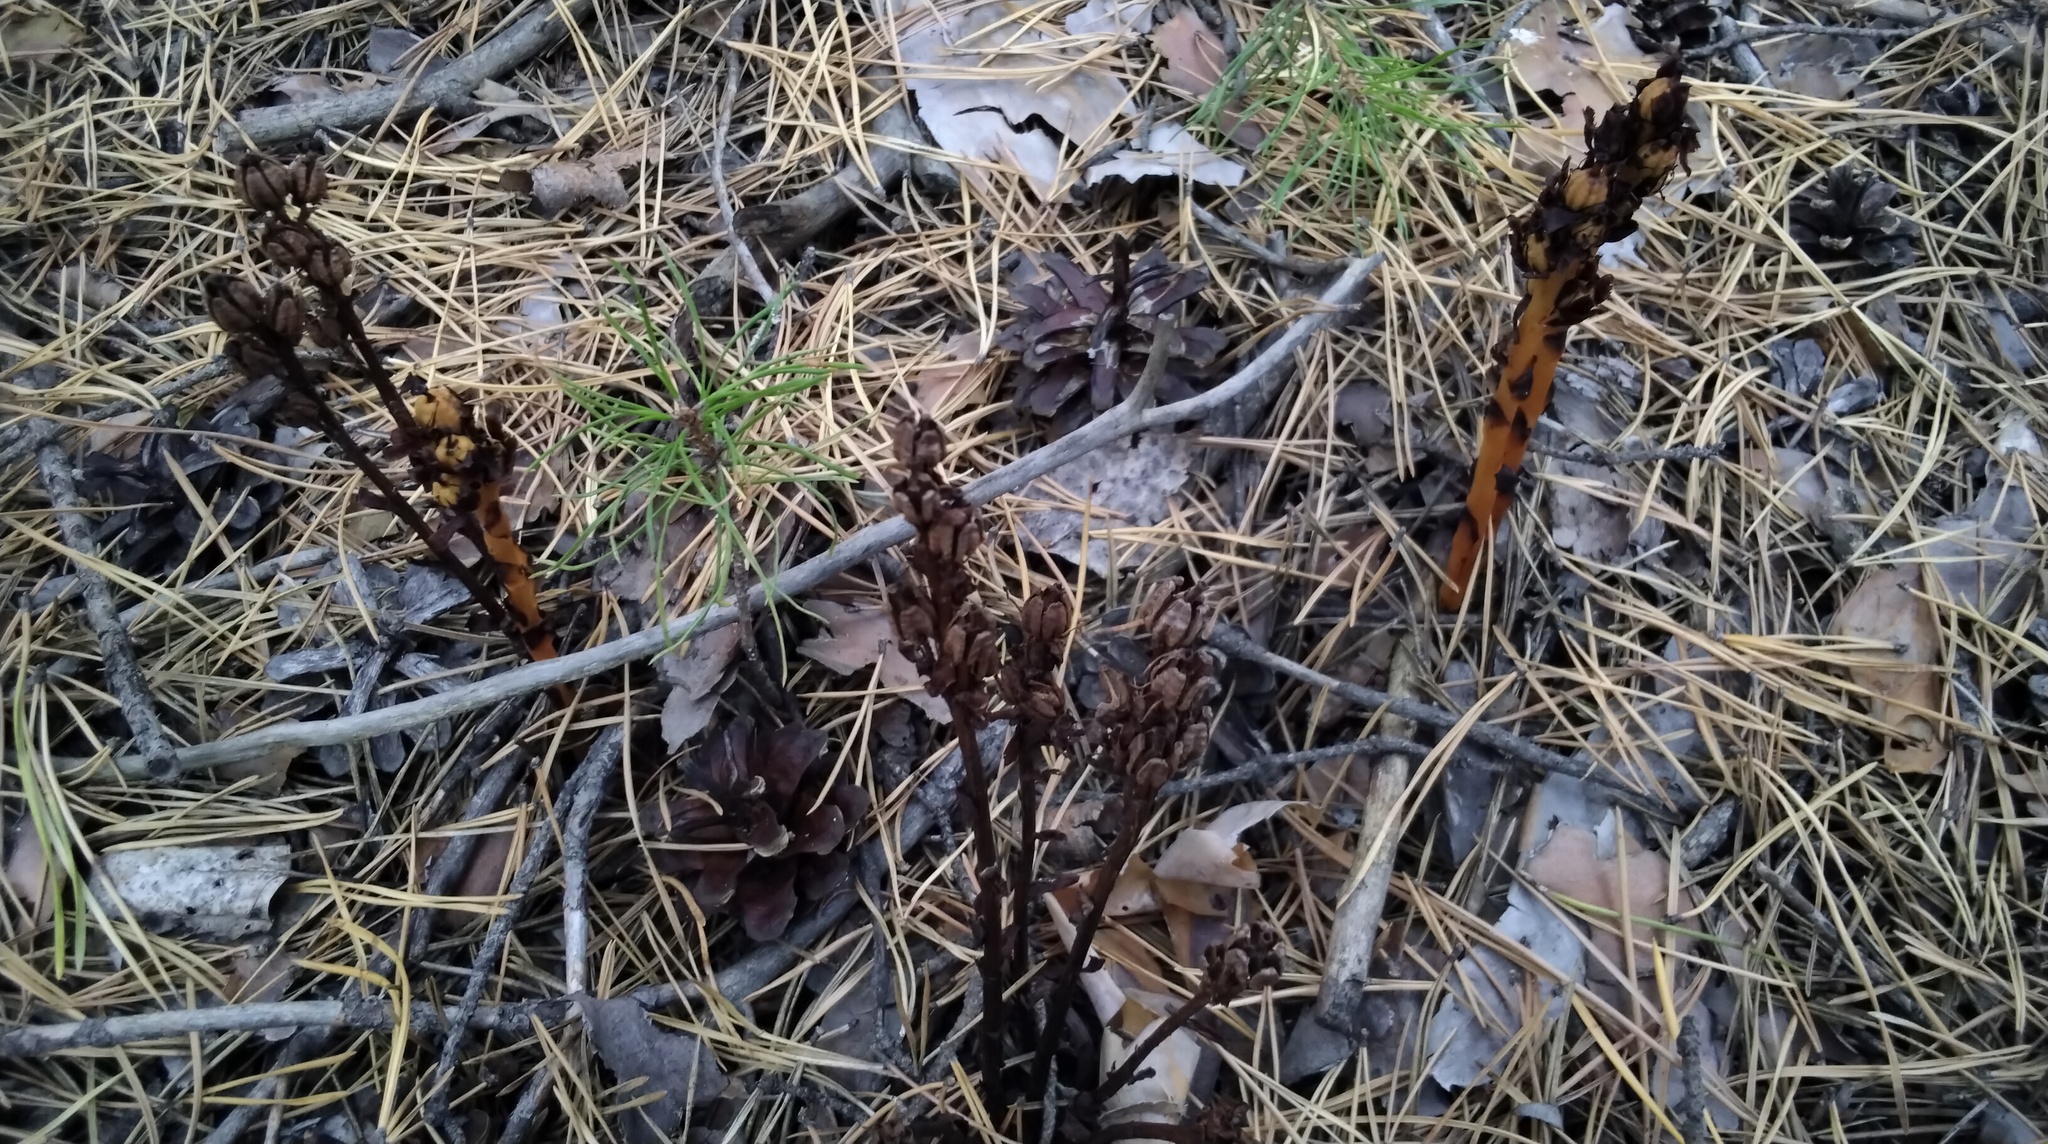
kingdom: Plantae
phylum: Tracheophyta
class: Magnoliopsida
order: Ericales
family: Ericaceae
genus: Hypopitys
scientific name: Hypopitys monotropa
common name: Yellow bird's-nest
